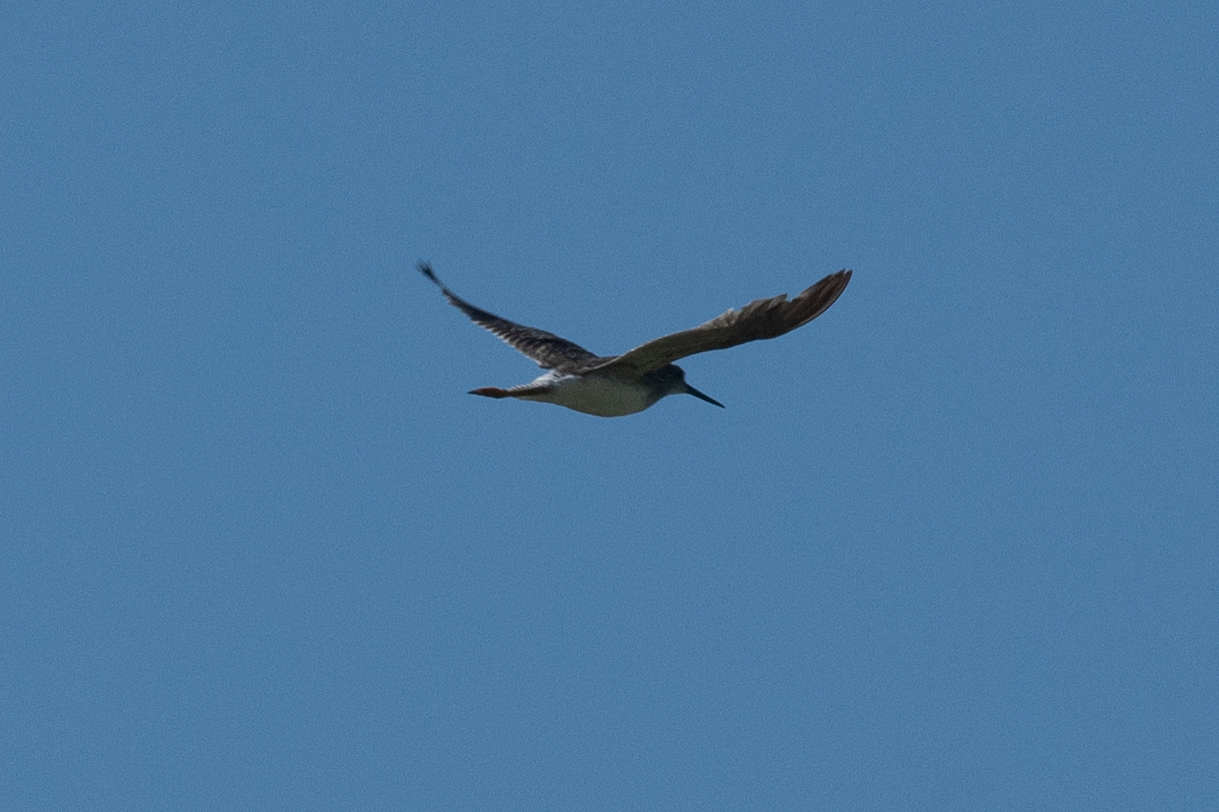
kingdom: Animalia
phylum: Chordata
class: Aves
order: Charadriiformes
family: Scolopacidae
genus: Tringa
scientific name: Tringa melanoleuca
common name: Greater yellowlegs
